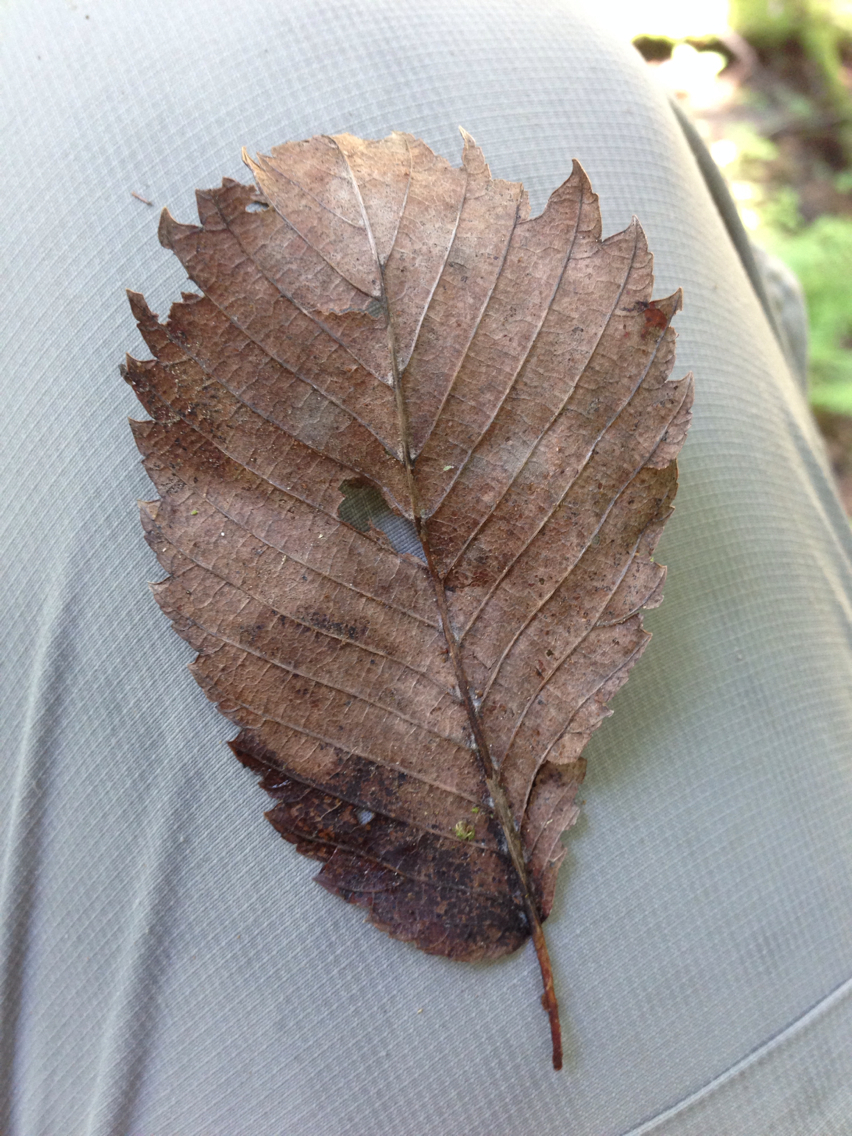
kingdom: Plantae
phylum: Tracheophyta
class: Magnoliopsida
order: Rosales
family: Ulmaceae
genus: Ulmus
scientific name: Ulmus americana
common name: American elm
